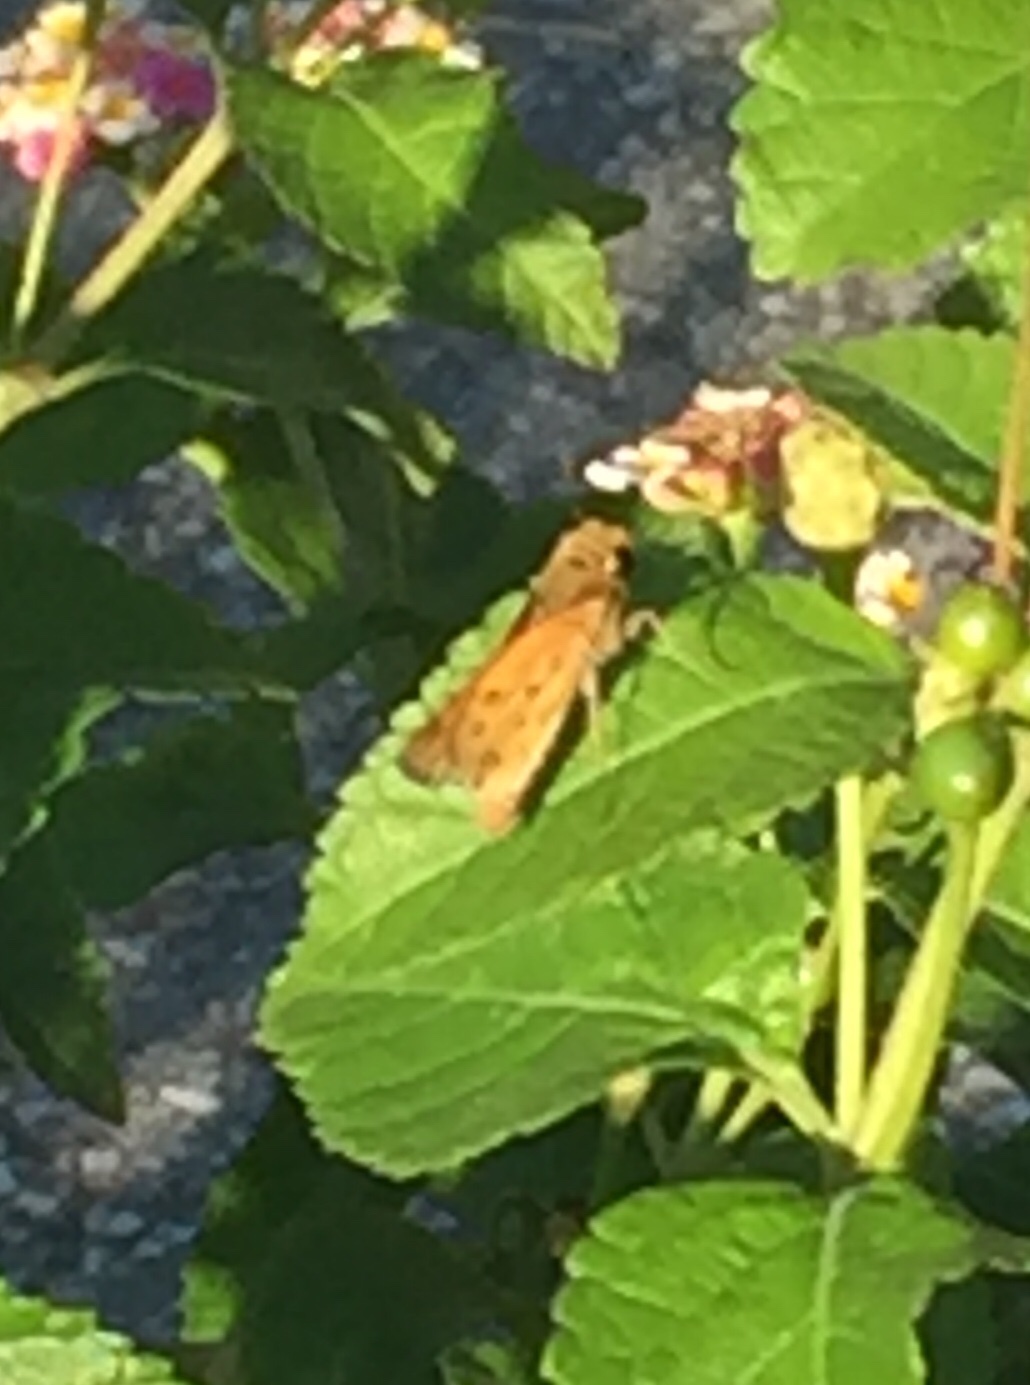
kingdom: Animalia
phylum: Arthropoda
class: Insecta
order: Lepidoptera
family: Hesperiidae
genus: Hylephila
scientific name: Hylephila phyleus
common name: Fiery skipper
